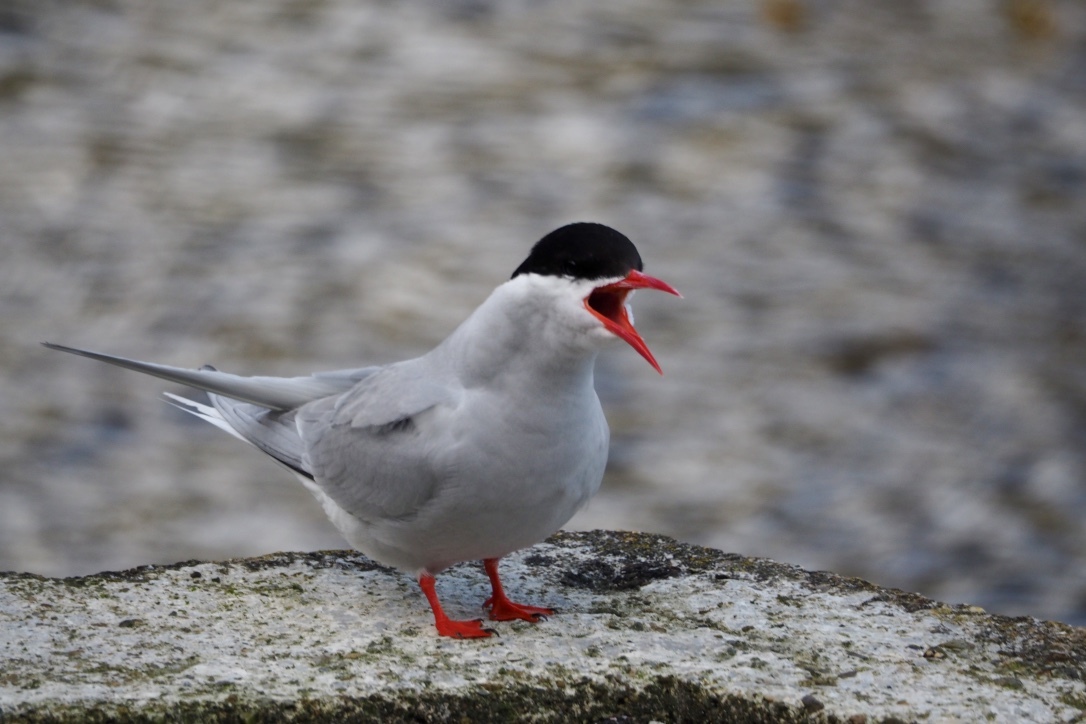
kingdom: Animalia
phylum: Chordata
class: Aves
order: Charadriiformes
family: Laridae
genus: Sterna
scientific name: Sterna vittata
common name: Antarctic tern
